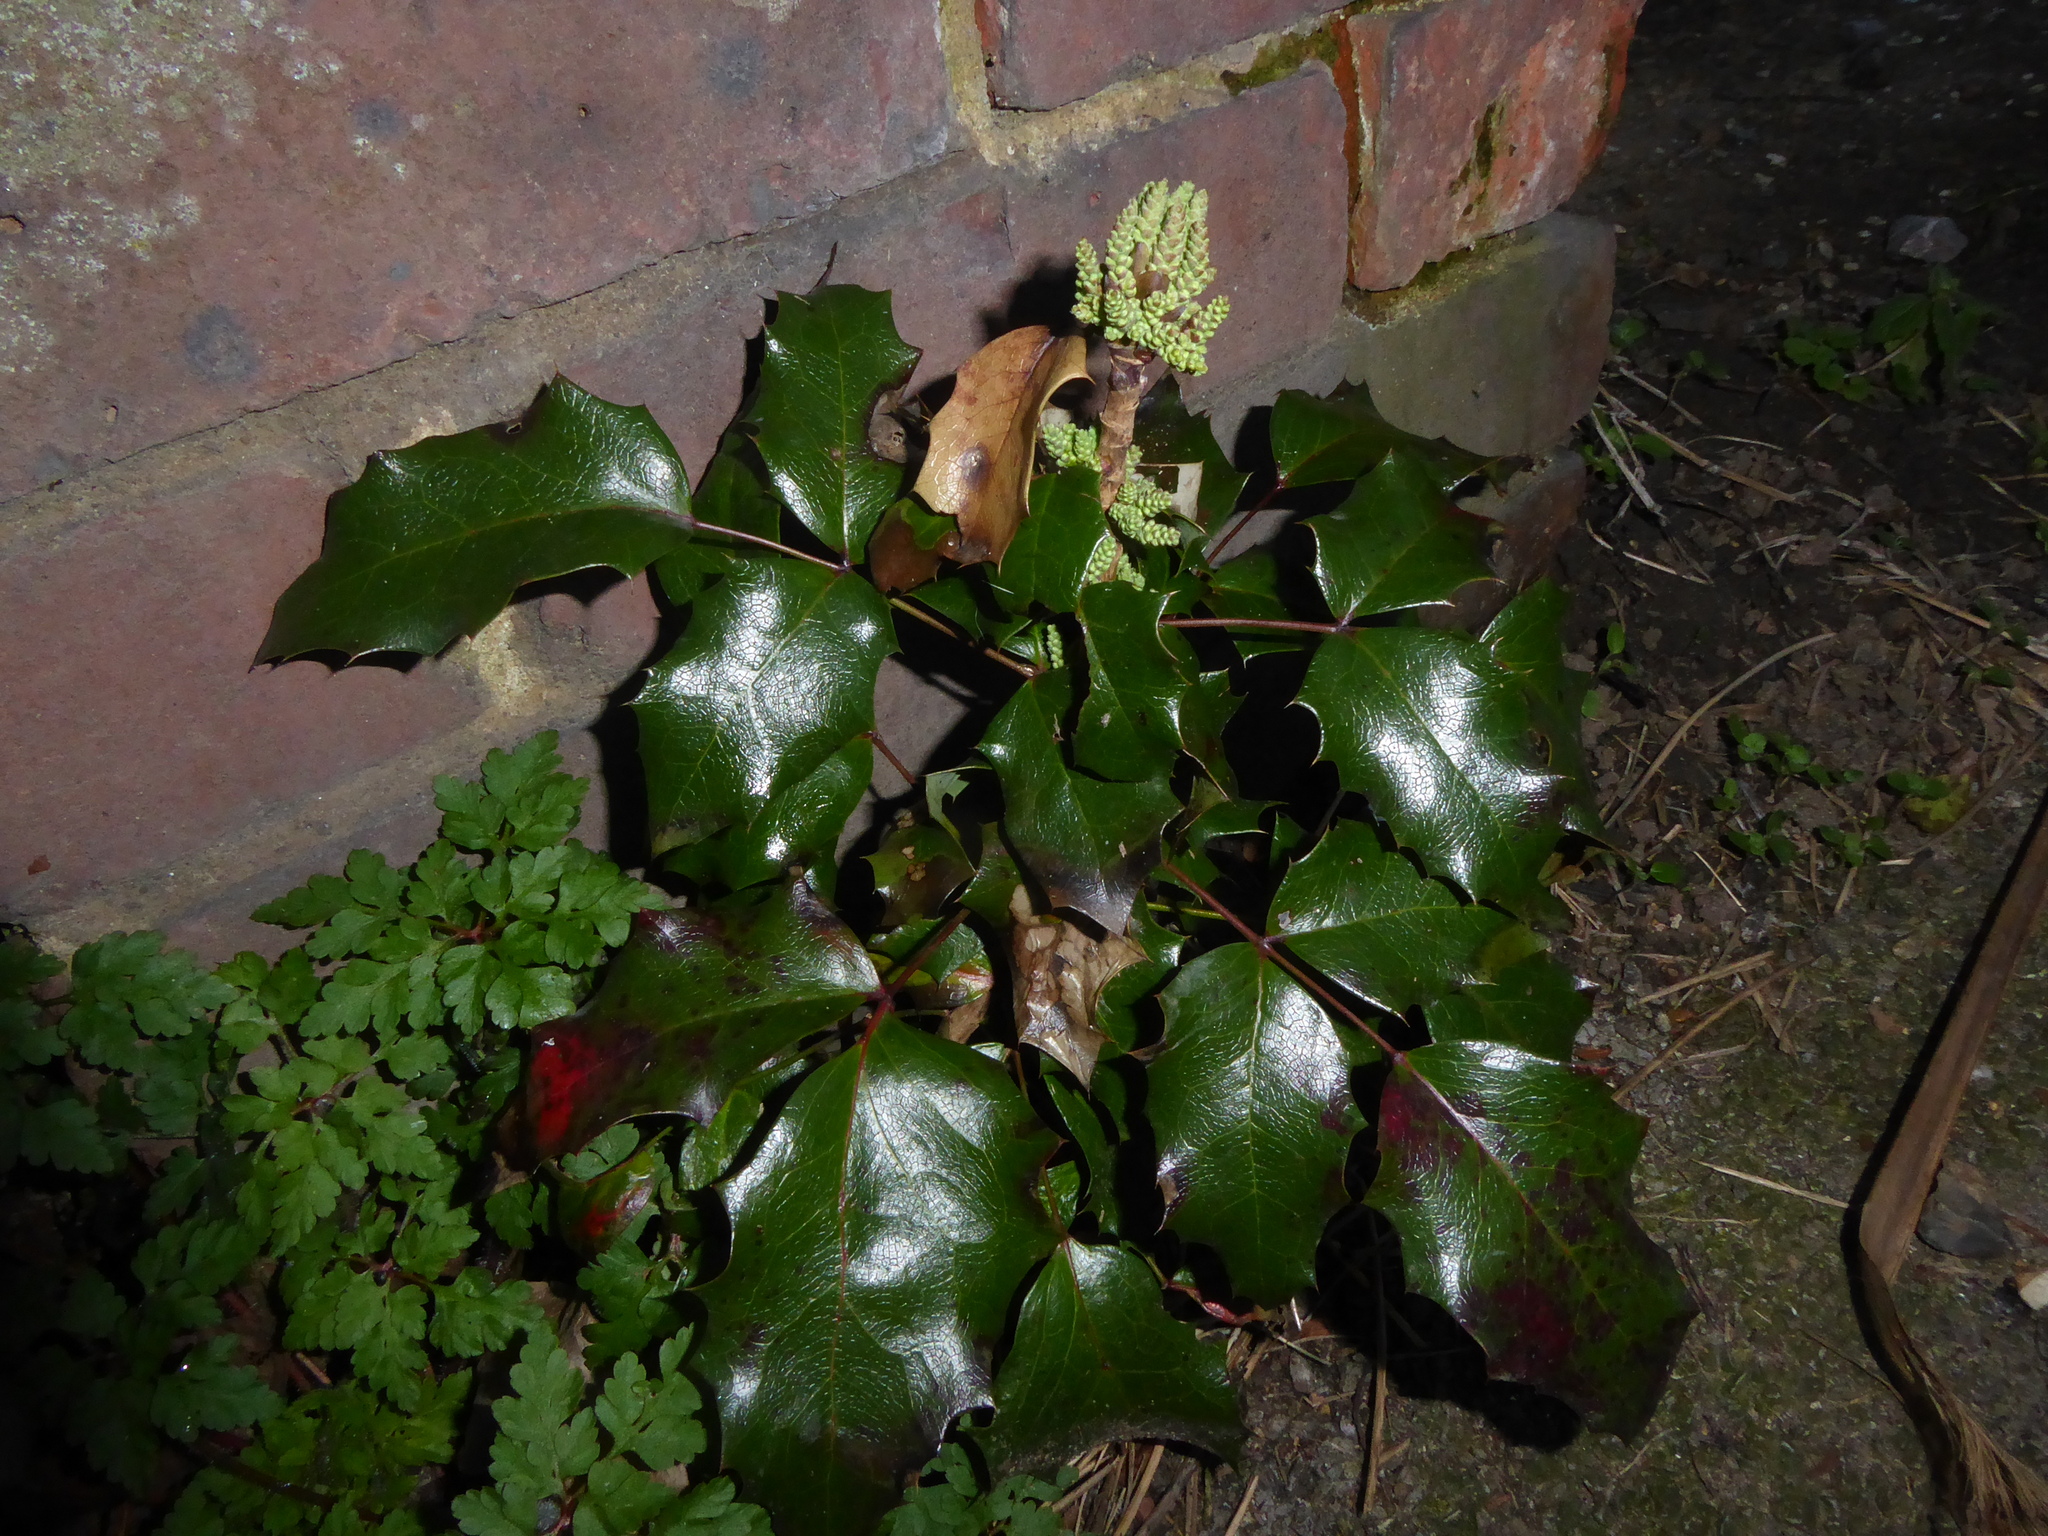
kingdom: Plantae
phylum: Tracheophyta
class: Magnoliopsida
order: Ranunculales
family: Berberidaceae
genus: Mahonia
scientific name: Mahonia aquifolium
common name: Oregon-grape
